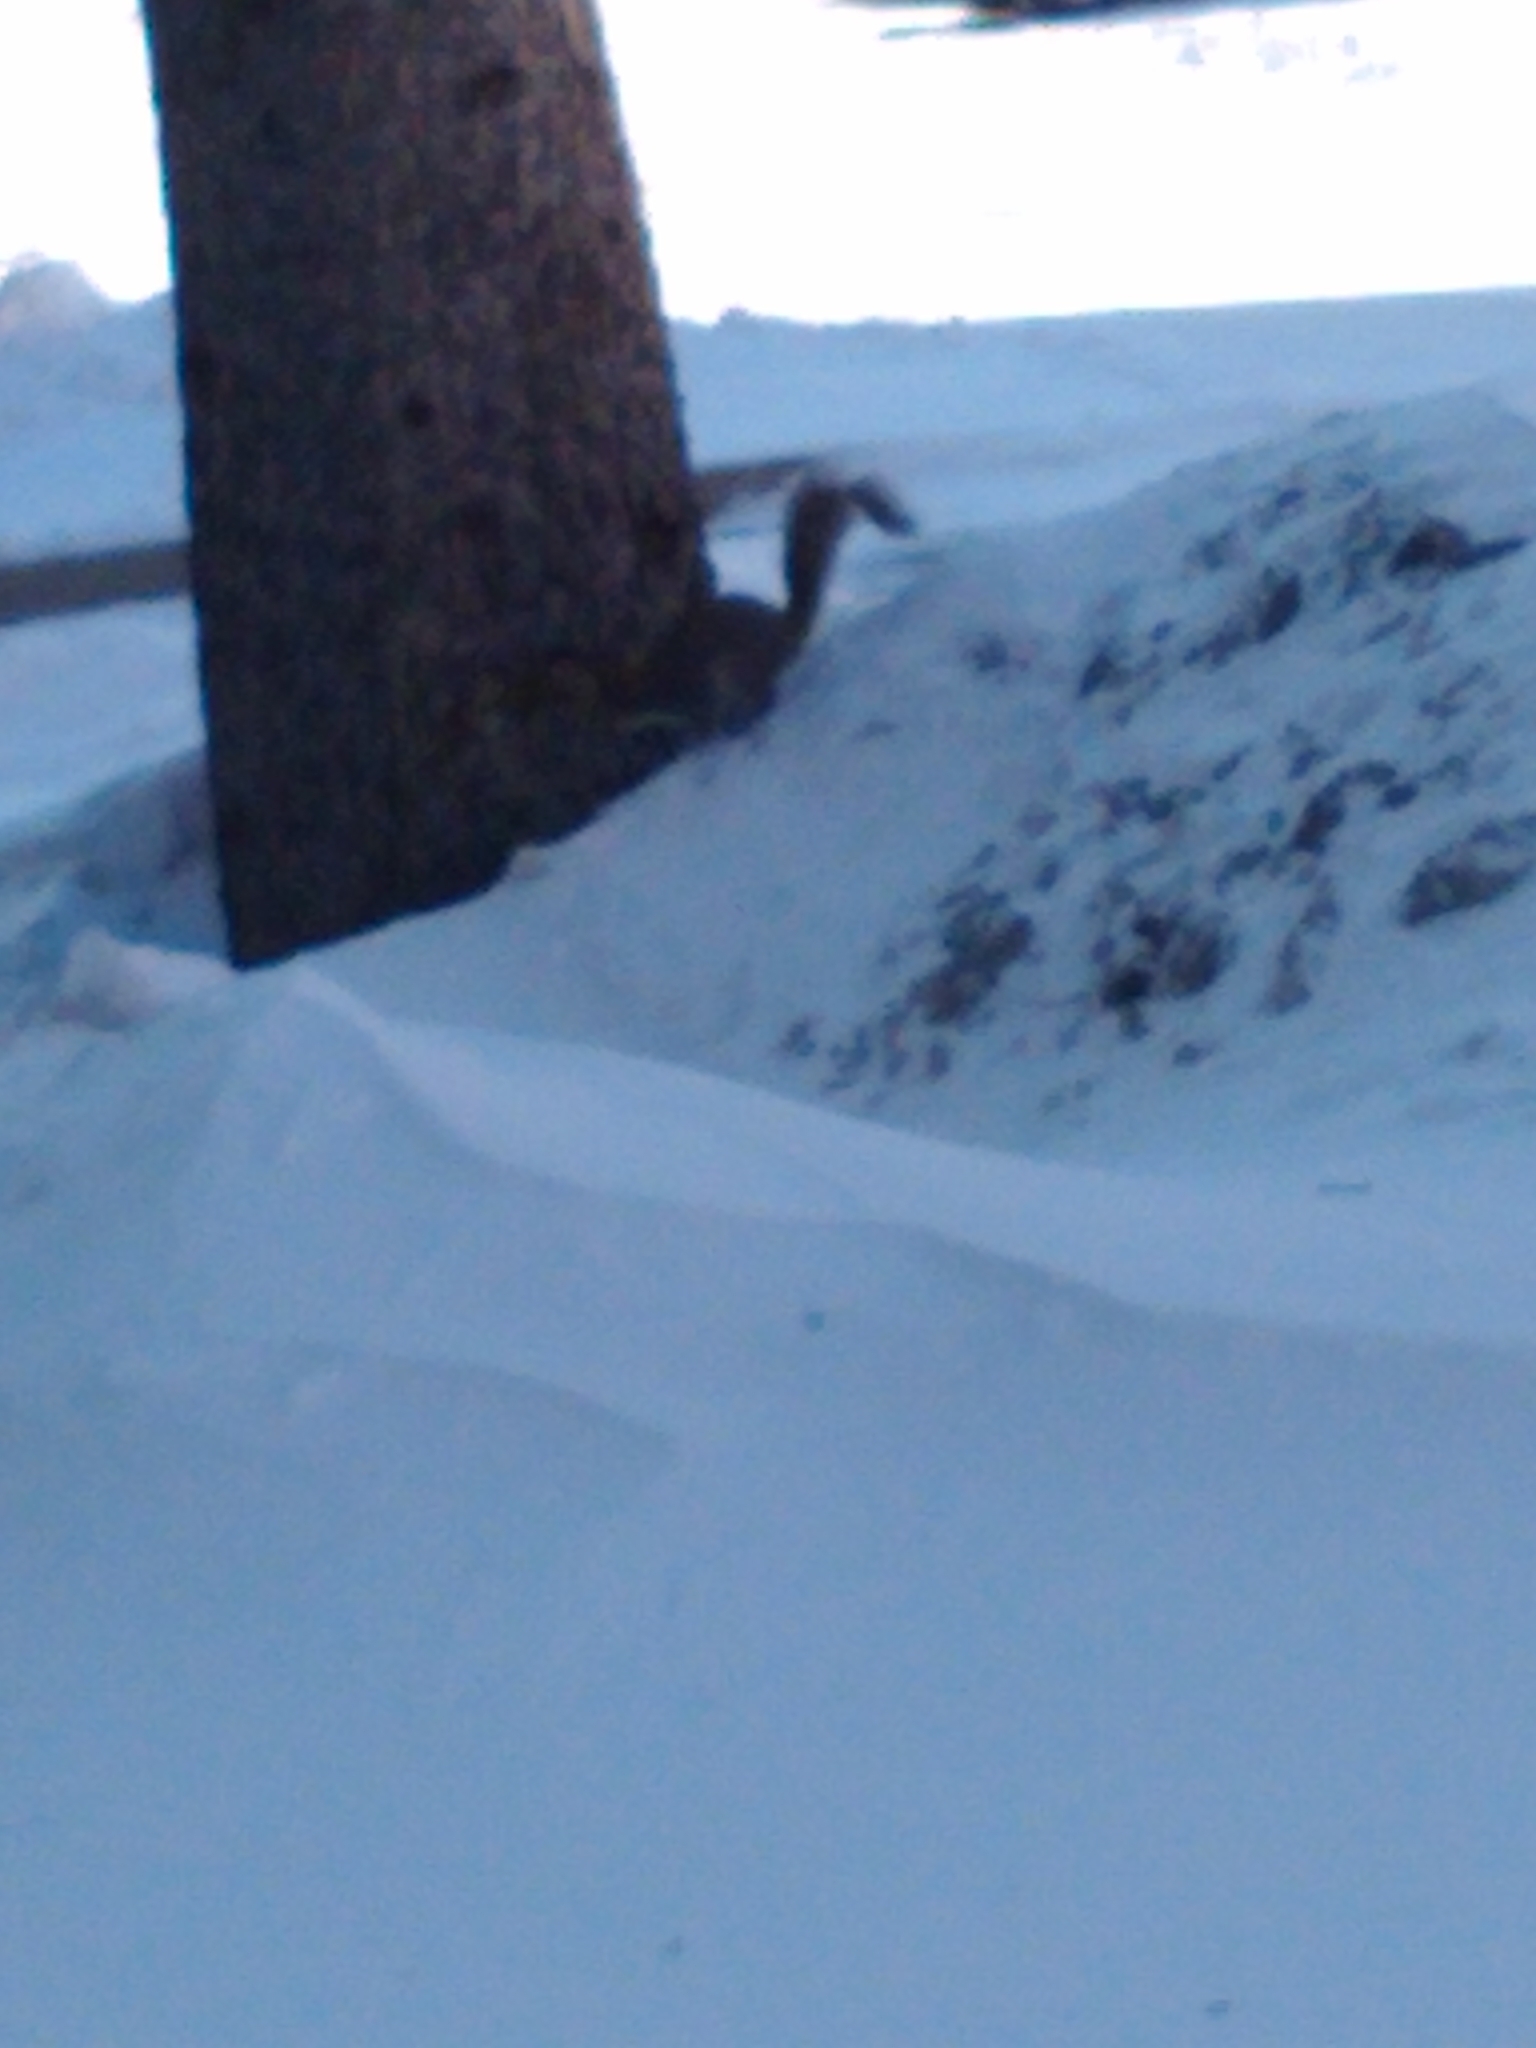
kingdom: Animalia
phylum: Chordata
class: Mammalia
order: Rodentia
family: Sciuridae
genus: Sciurus
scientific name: Sciurus carolinensis
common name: Eastern gray squirrel
